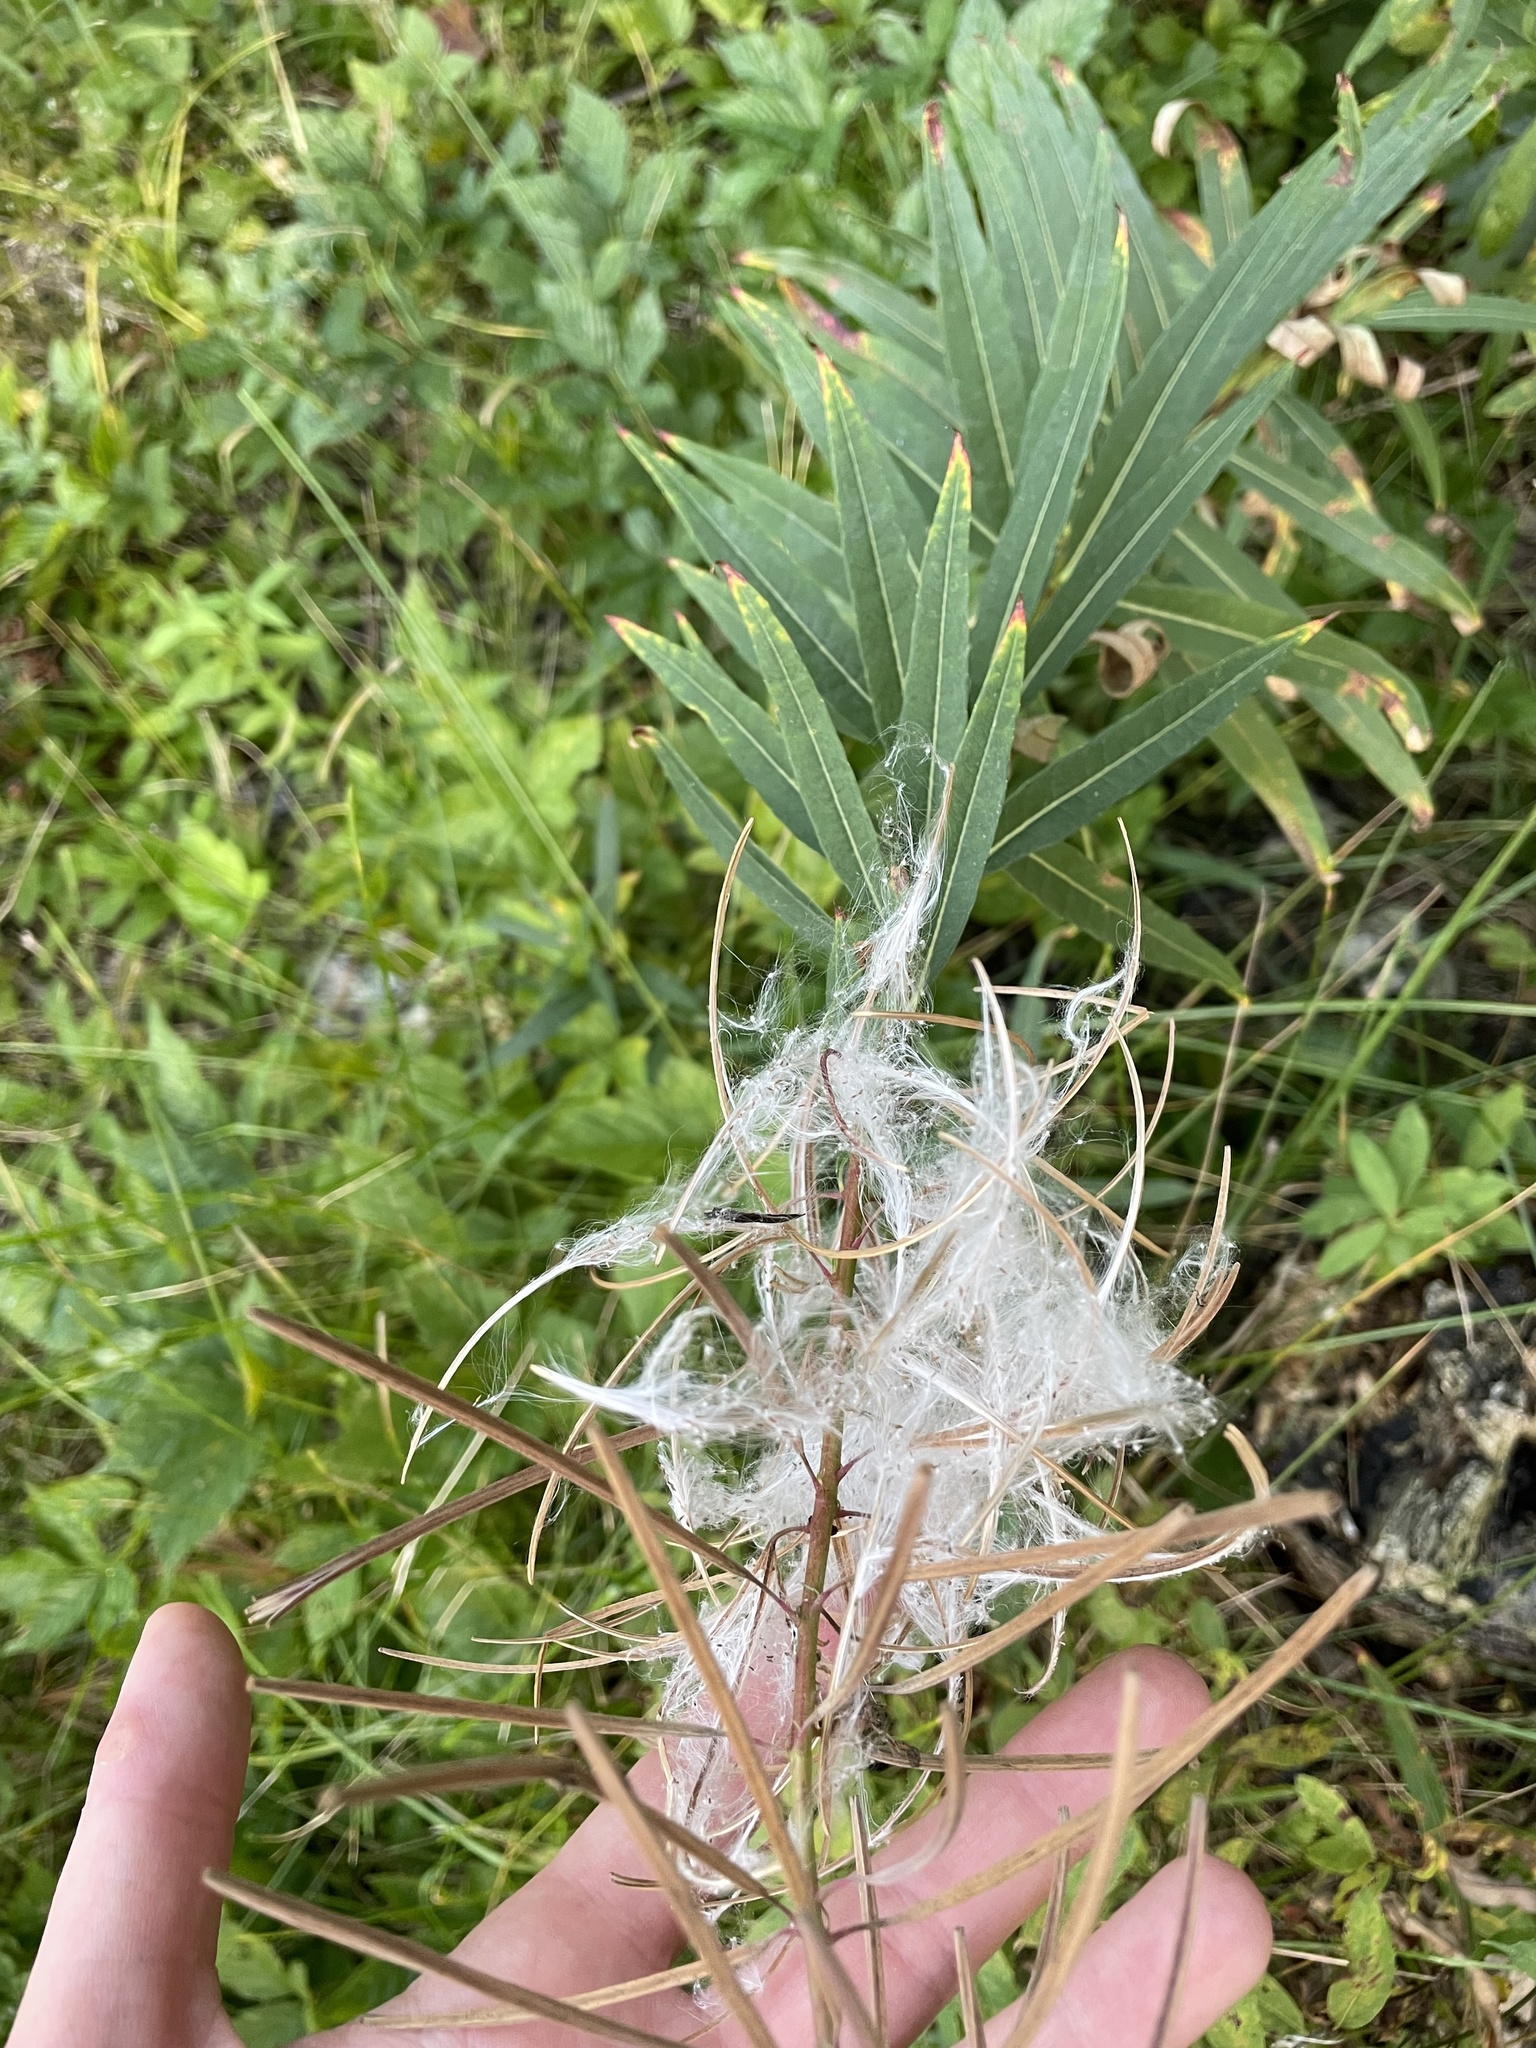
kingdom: Plantae
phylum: Tracheophyta
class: Magnoliopsida
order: Myrtales
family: Onagraceae
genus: Chamaenerion
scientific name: Chamaenerion angustifolium
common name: Fireweed
